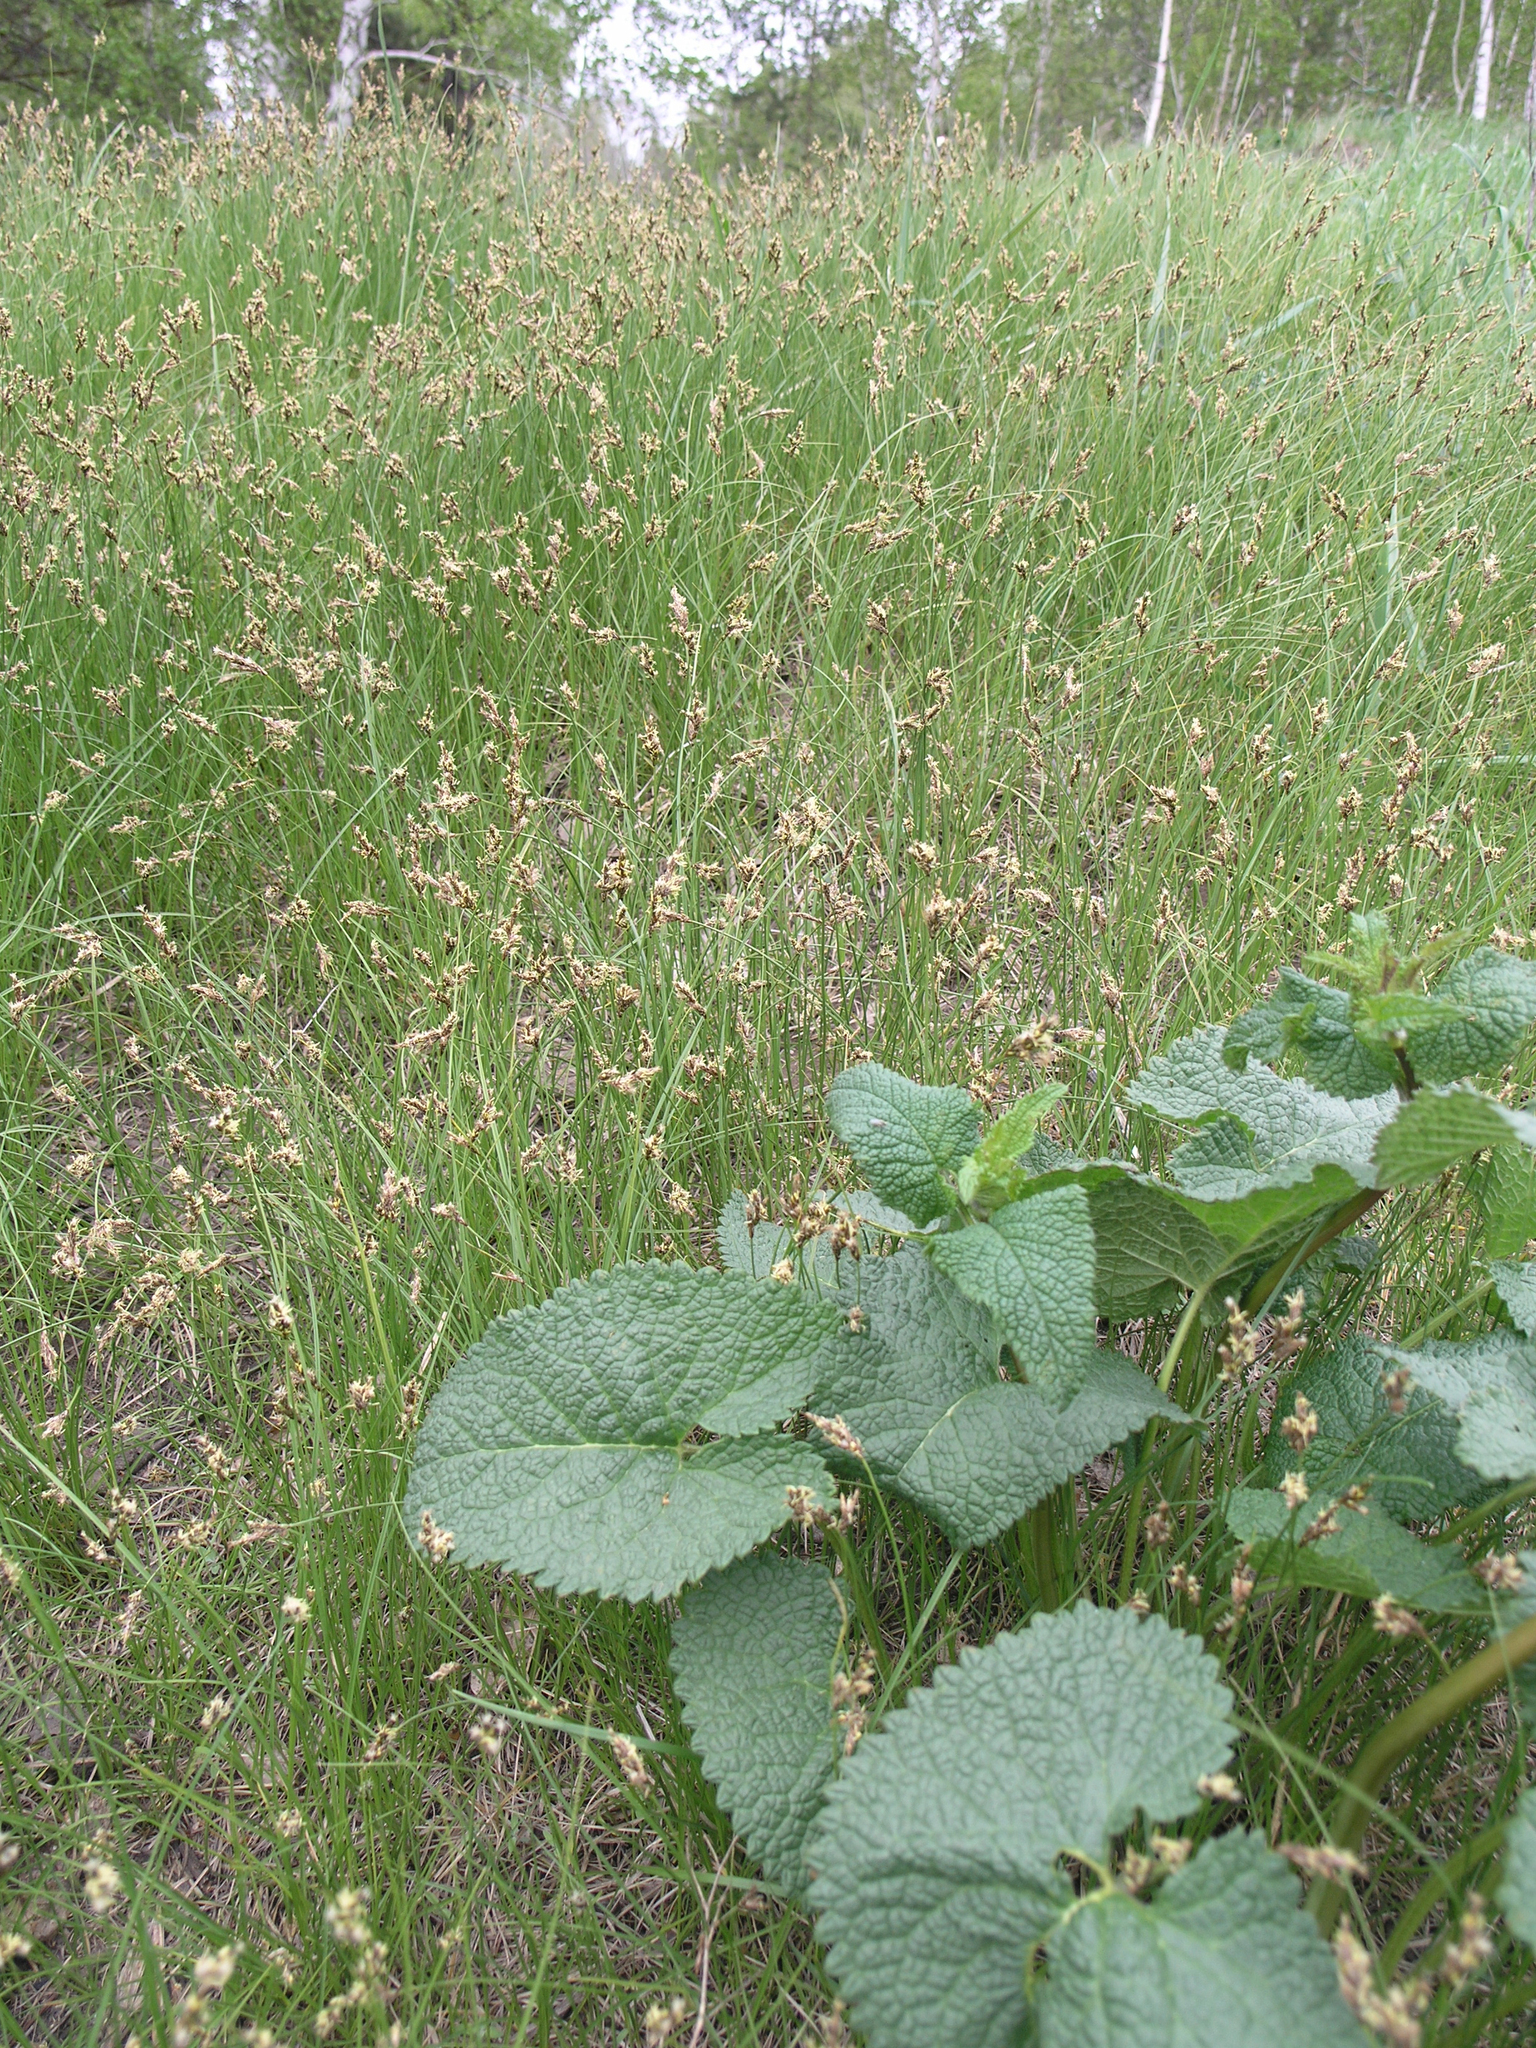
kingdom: Plantae
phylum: Tracheophyta
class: Liliopsida
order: Poales
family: Cyperaceae
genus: Carex
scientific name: Carex praecox
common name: Early sedge
